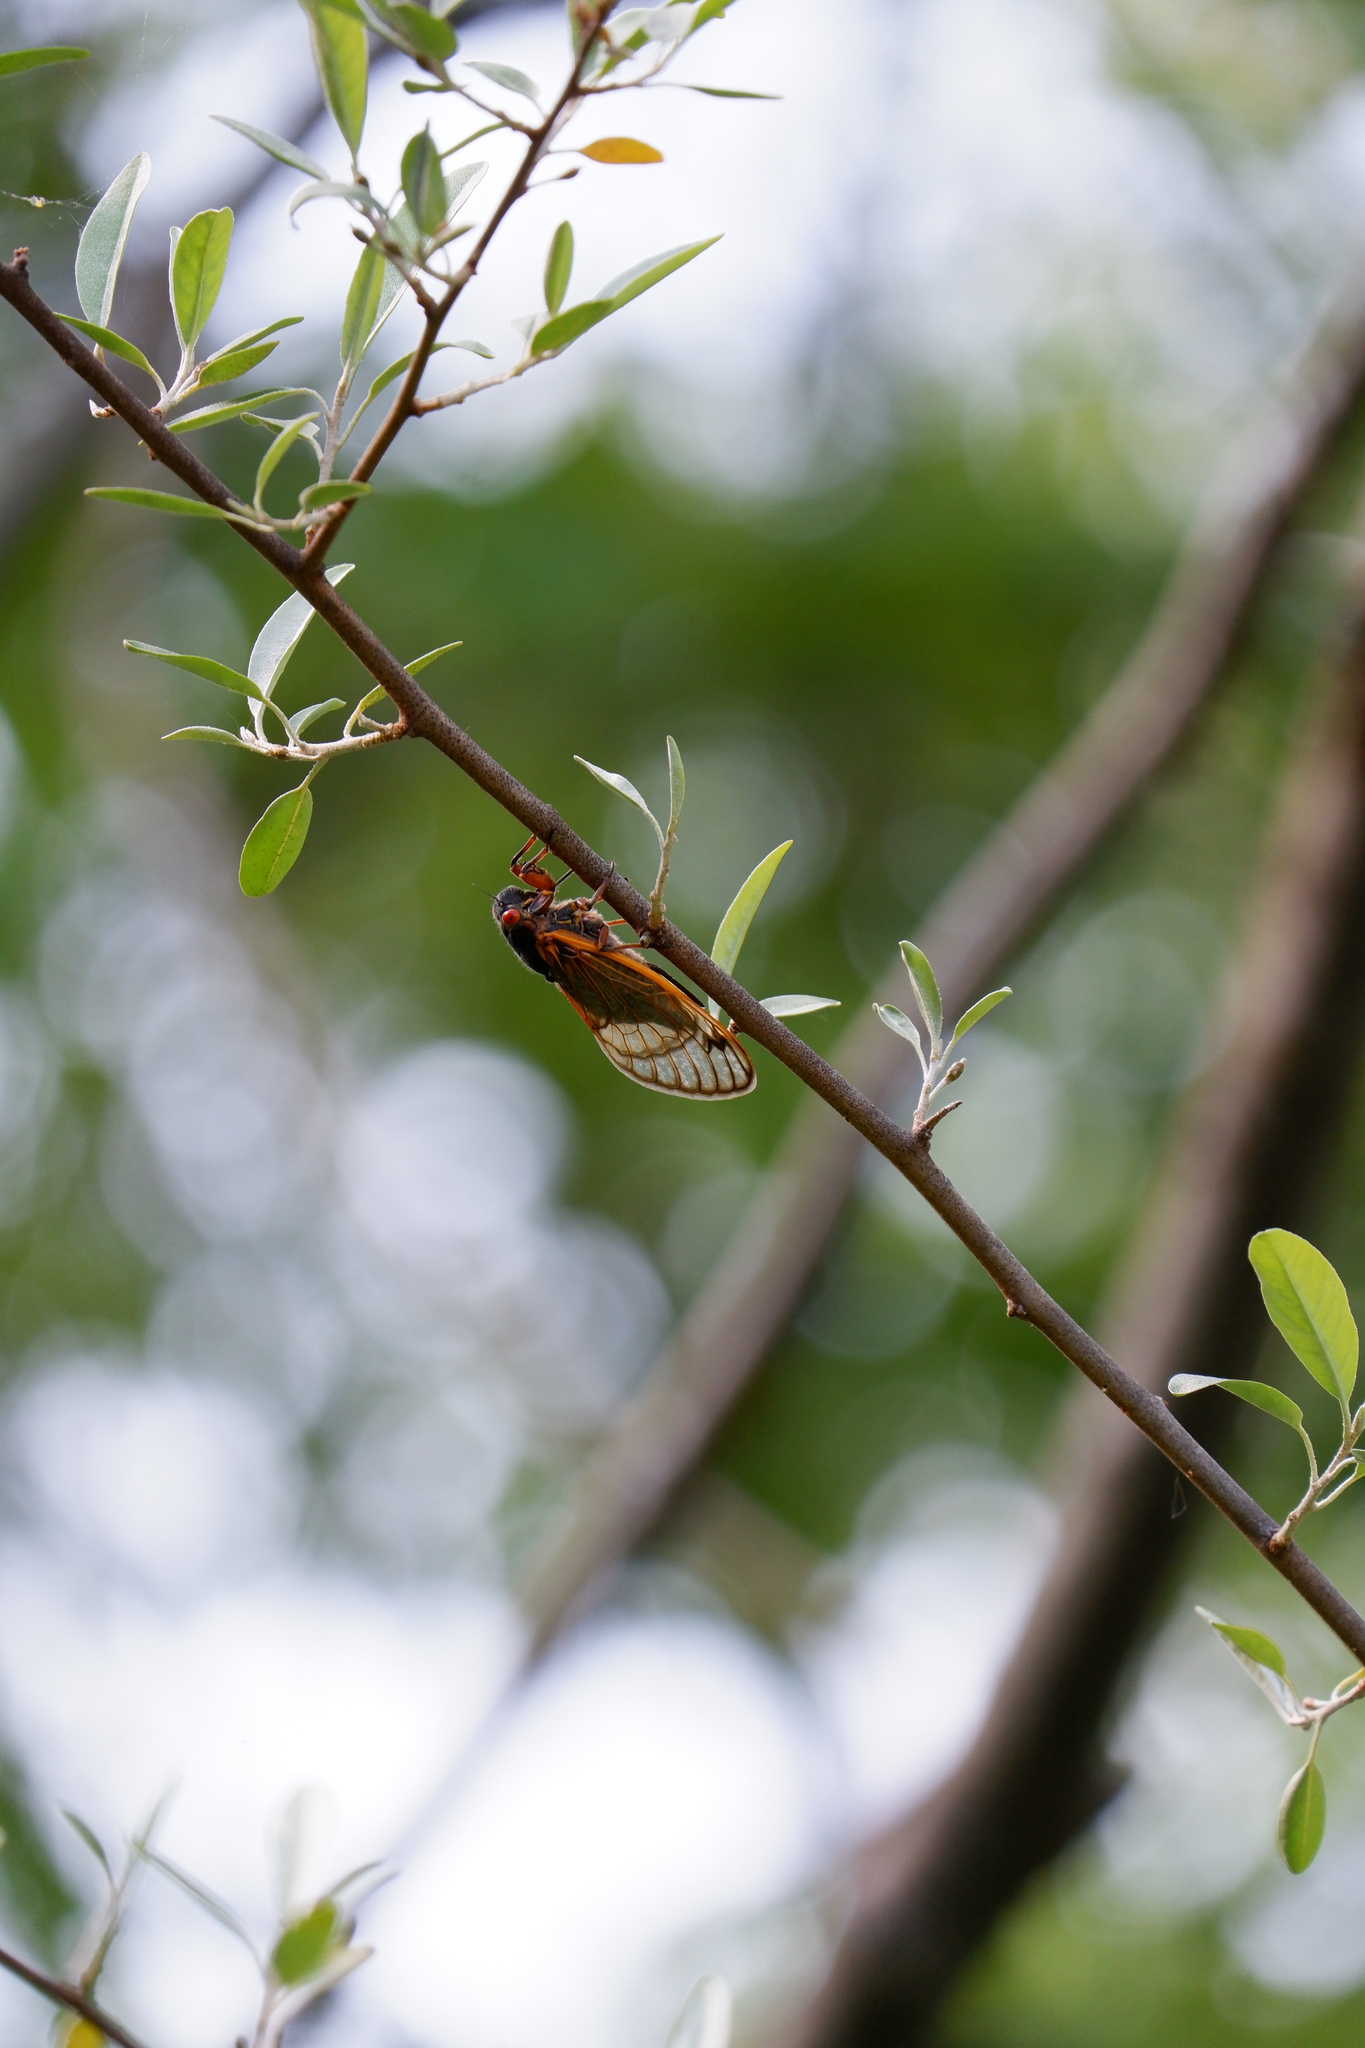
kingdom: Animalia
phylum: Arthropoda
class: Insecta
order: Hemiptera
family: Cicadidae
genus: Magicicada
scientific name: Magicicada septendecim
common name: Periodical cicada
